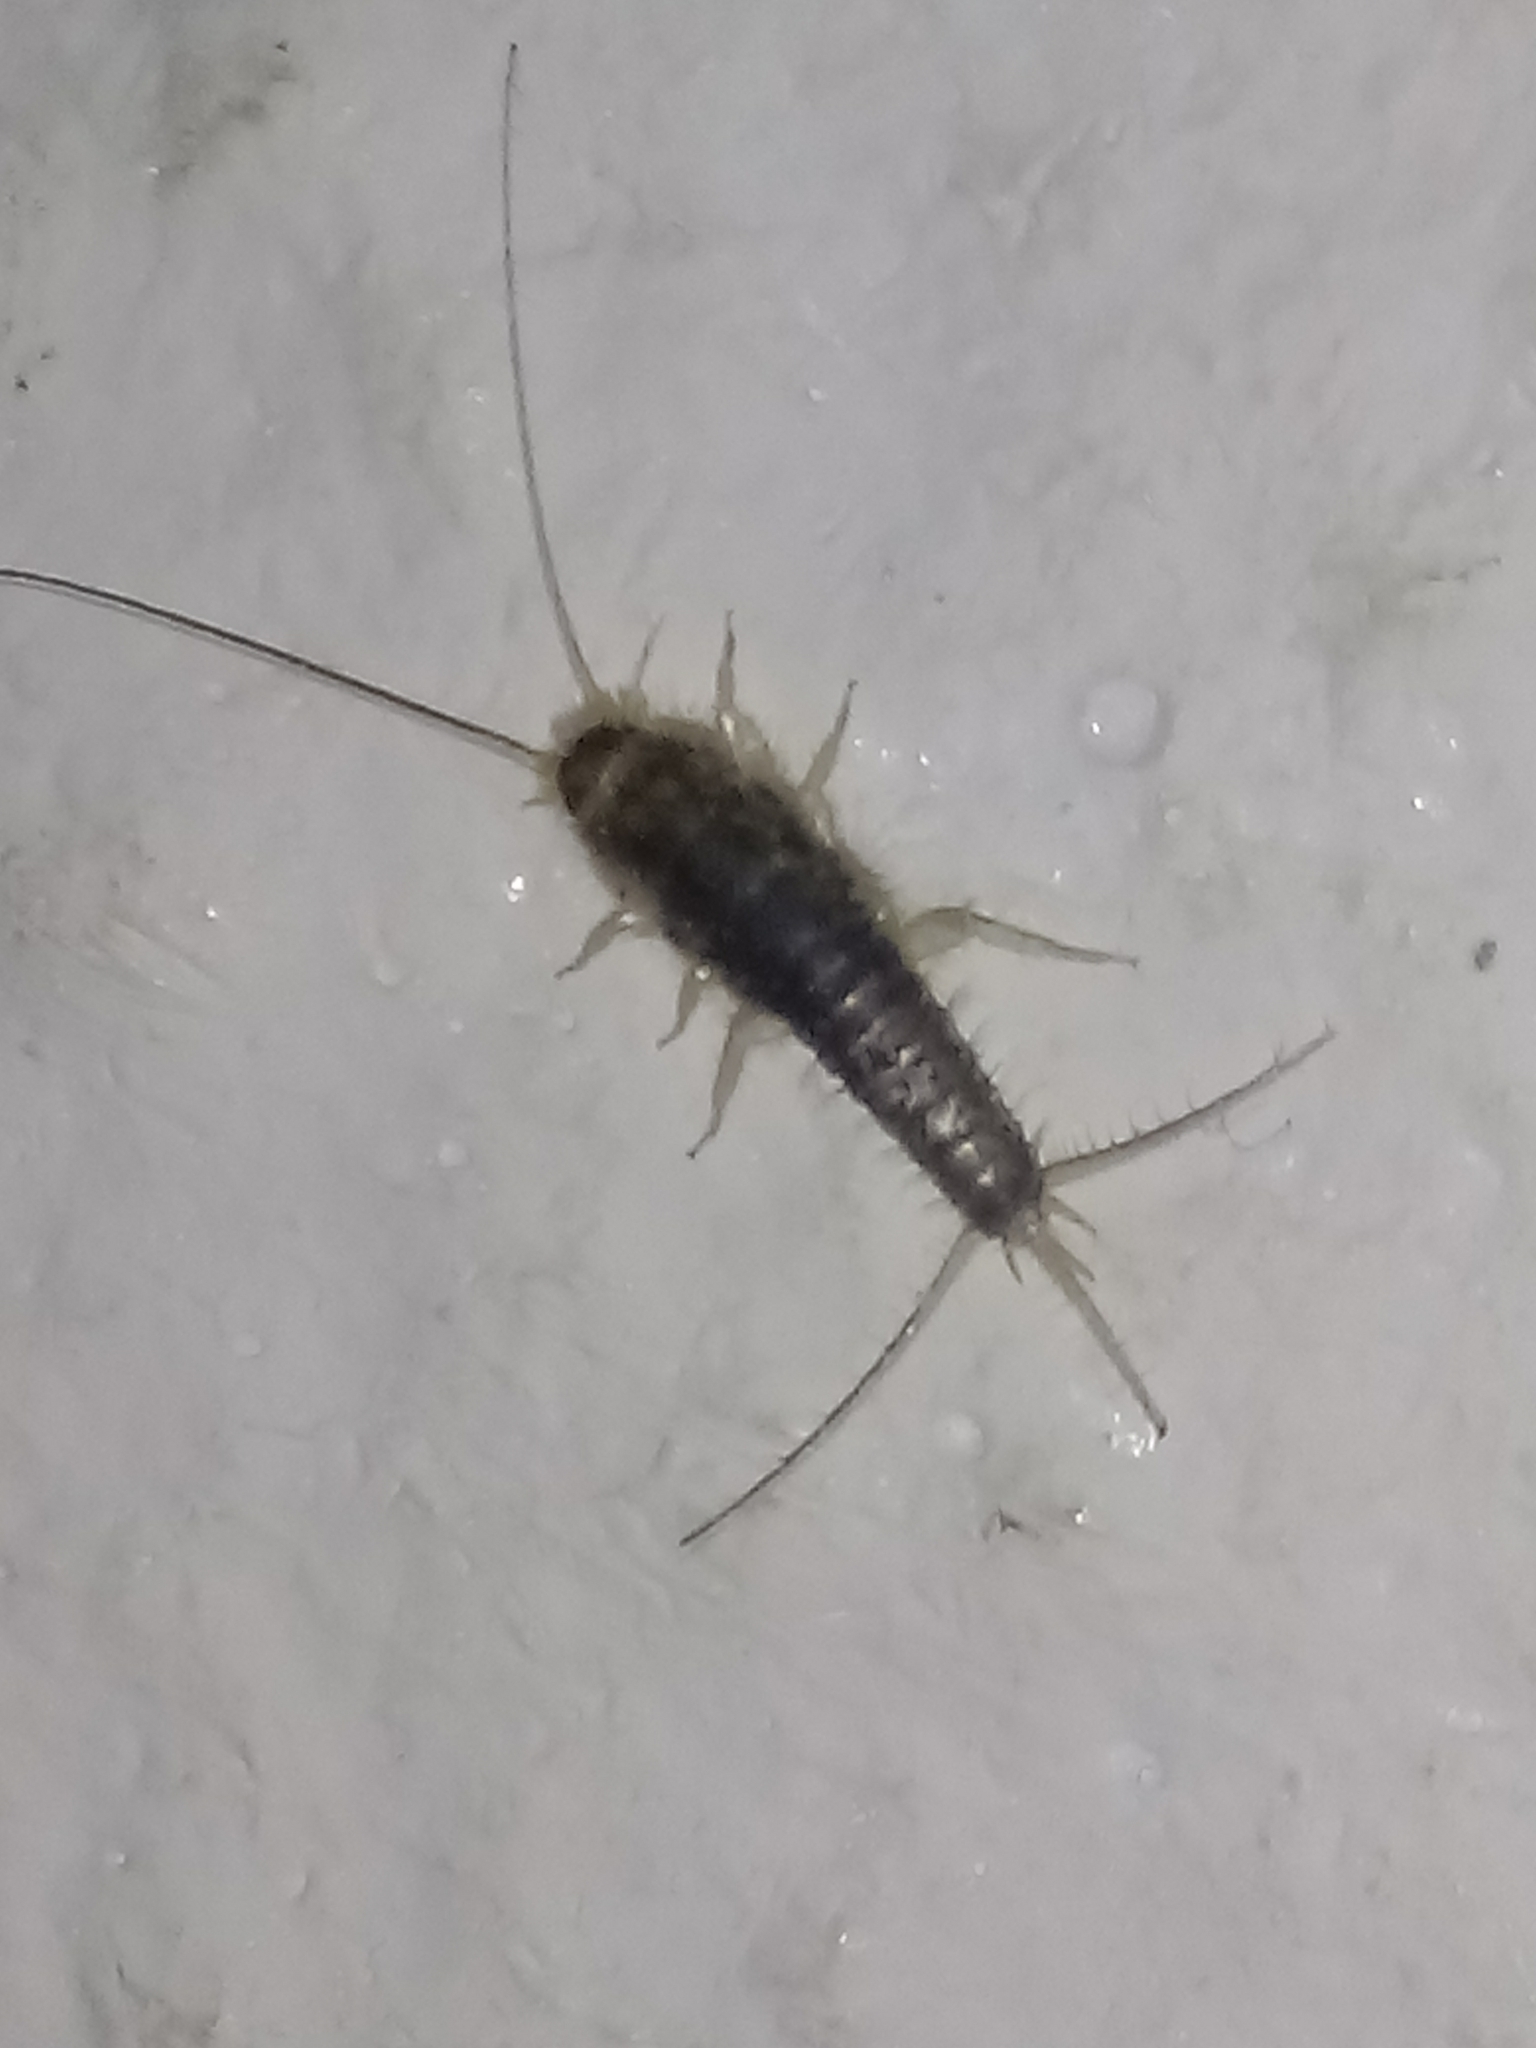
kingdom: Animalia
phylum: Arthropoda
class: Insecta
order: Zygentoma
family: Lepismatidae
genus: Ctenolepisma
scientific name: Ctenolepisma longicaudatum
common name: Silverfish
